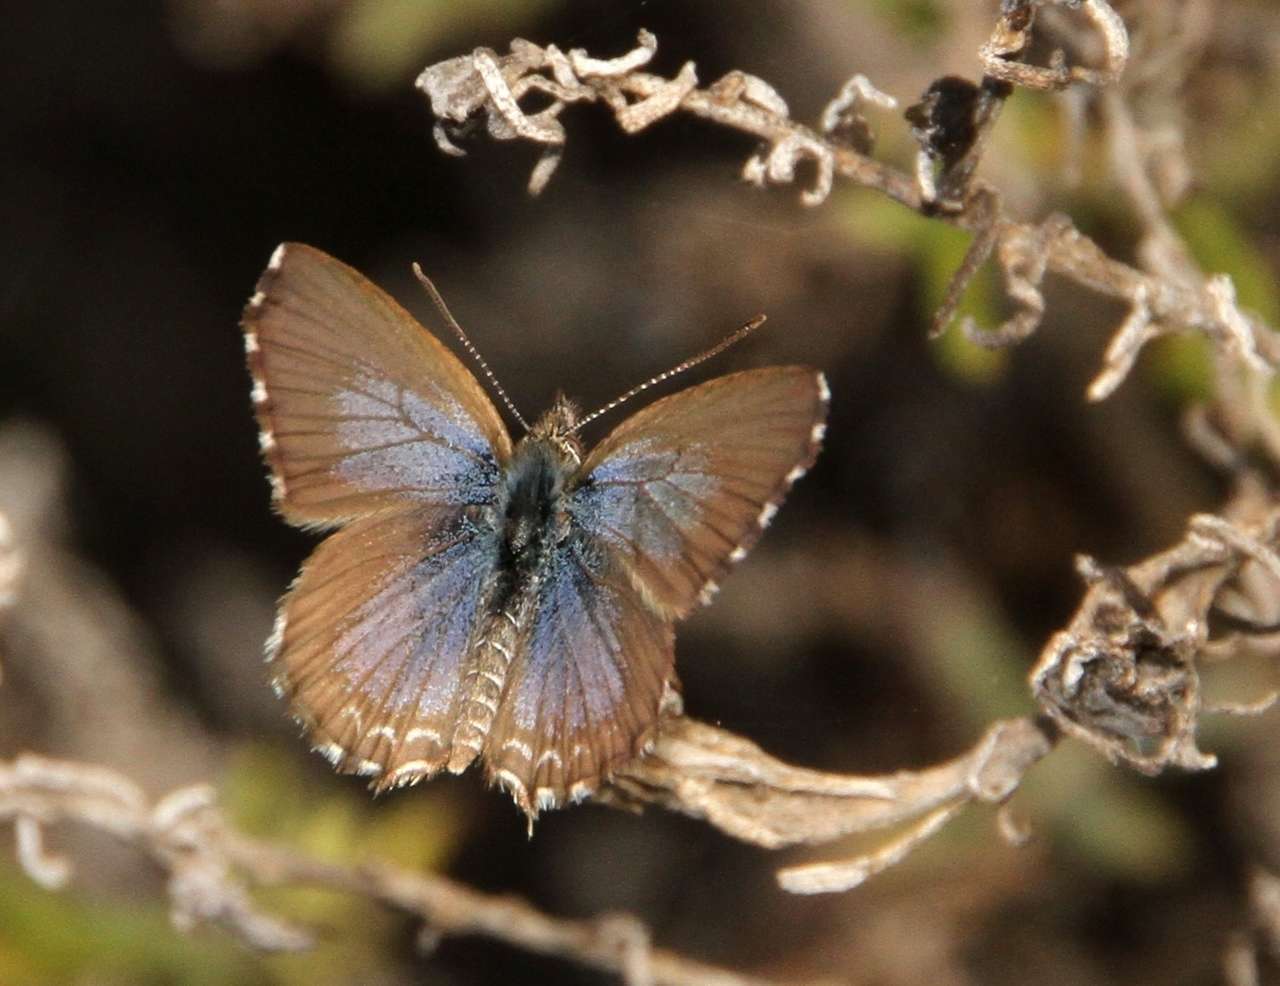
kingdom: Animalia
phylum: Arthropoda
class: Insecta
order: Lepidoptera
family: Lycaenidae
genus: Theclinesthes
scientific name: Theclinesthes serpentata
